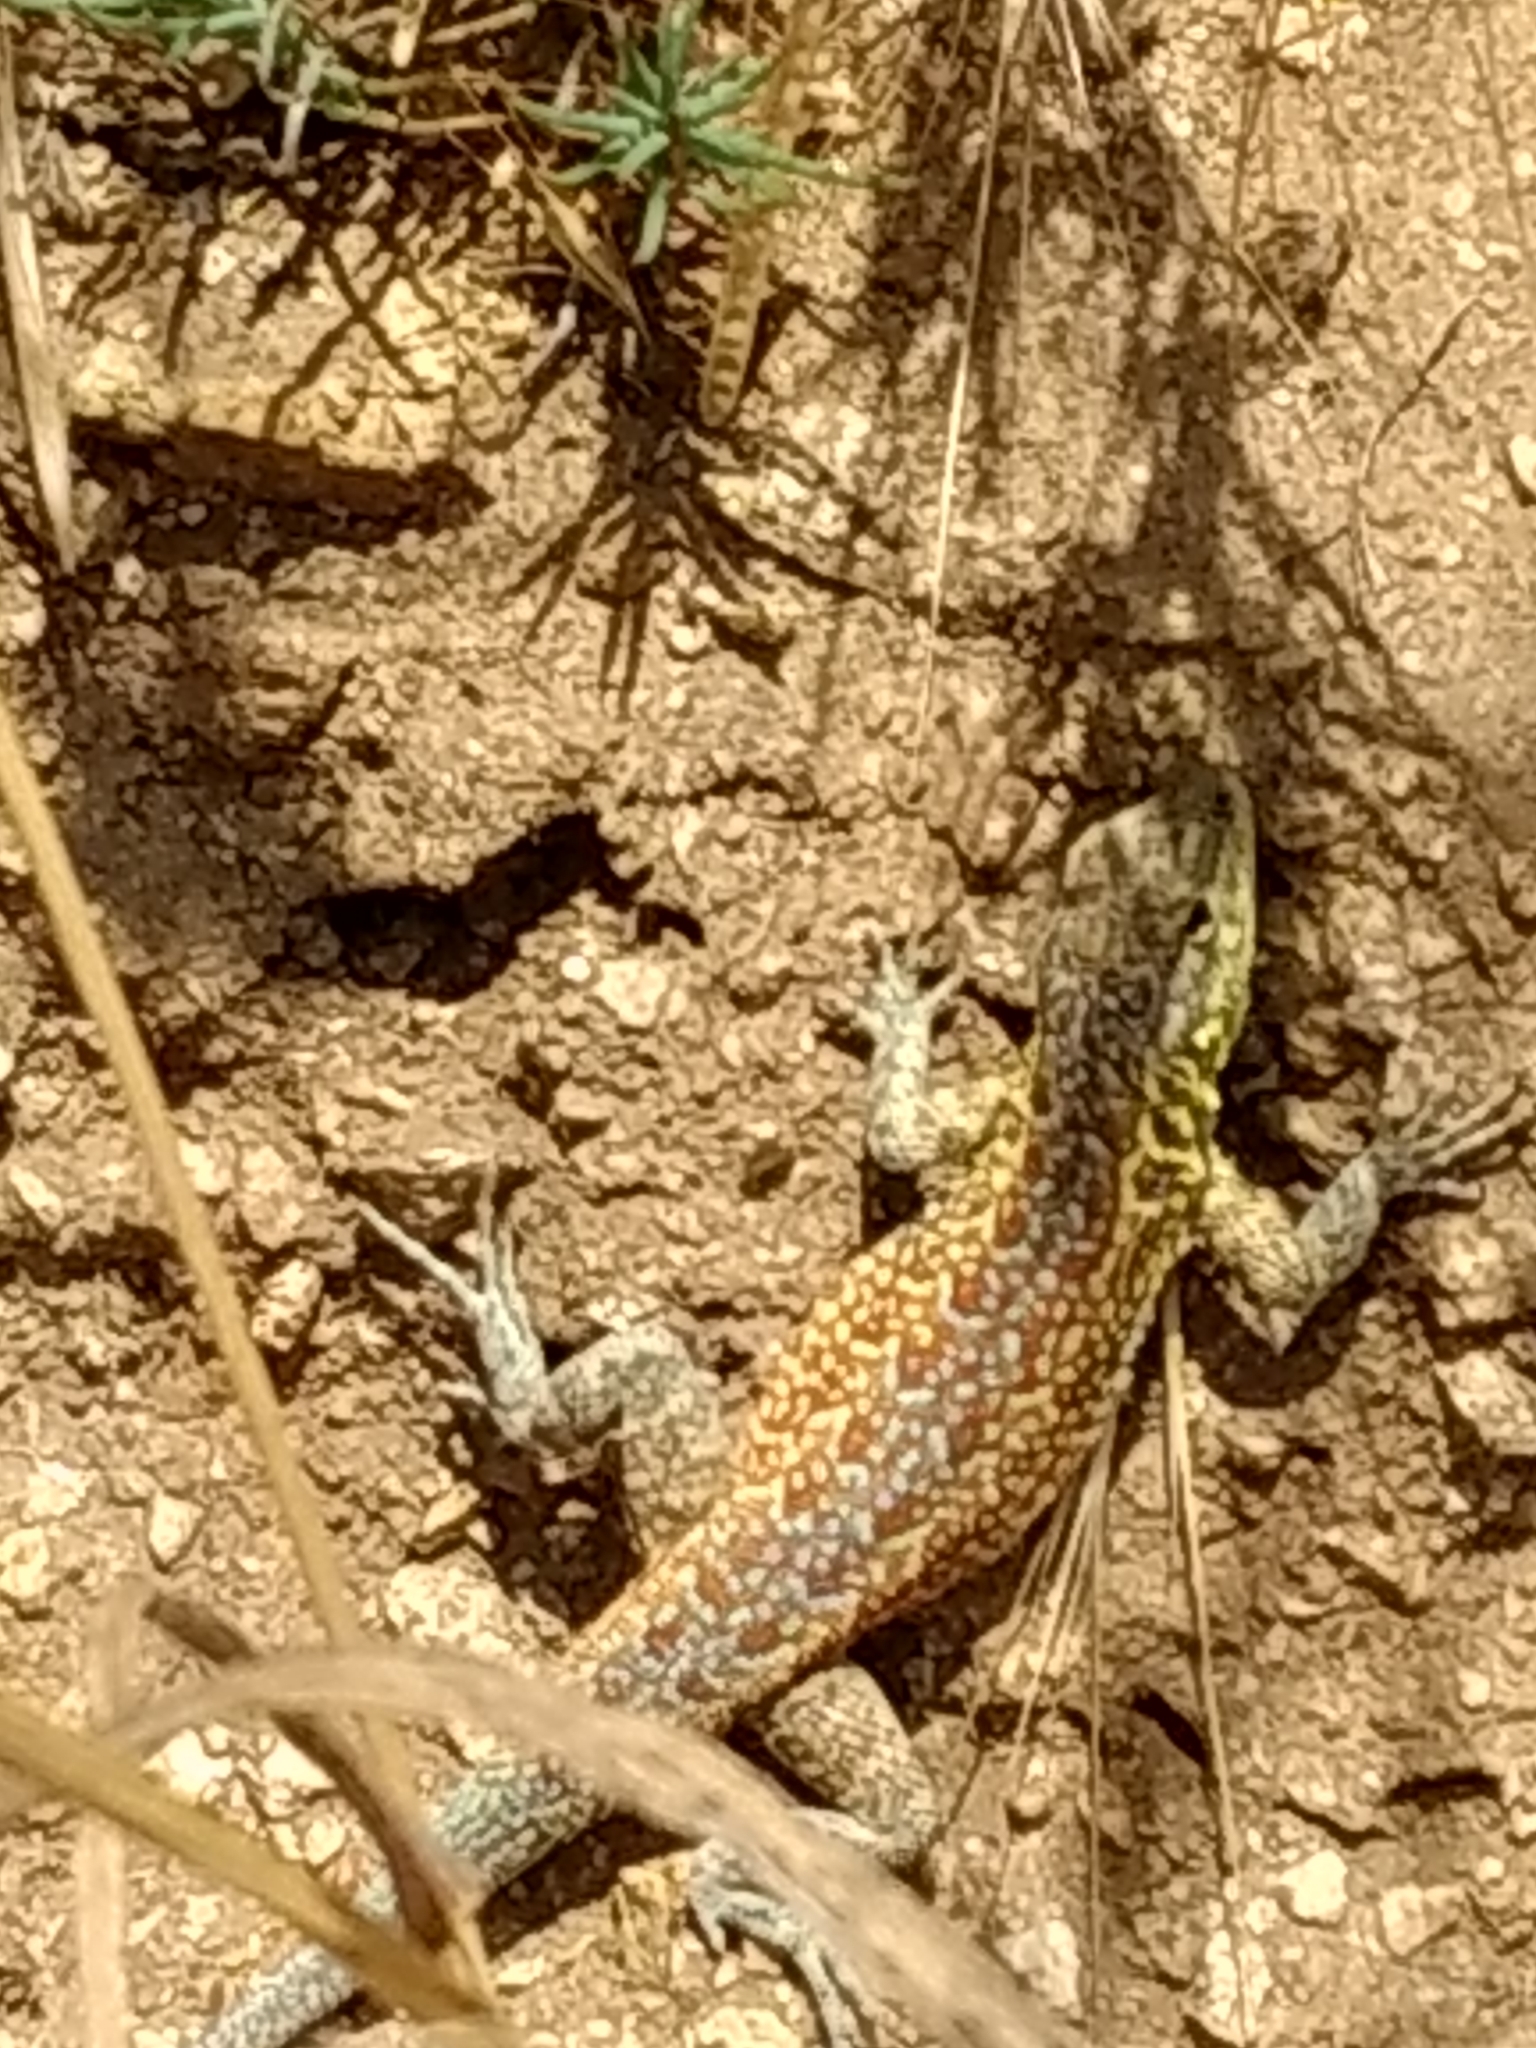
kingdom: Animalia
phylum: Chordata
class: Squamata
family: Phrynosomatidae
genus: Uta
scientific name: Uta stansburiana
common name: Side-blotched lizard
